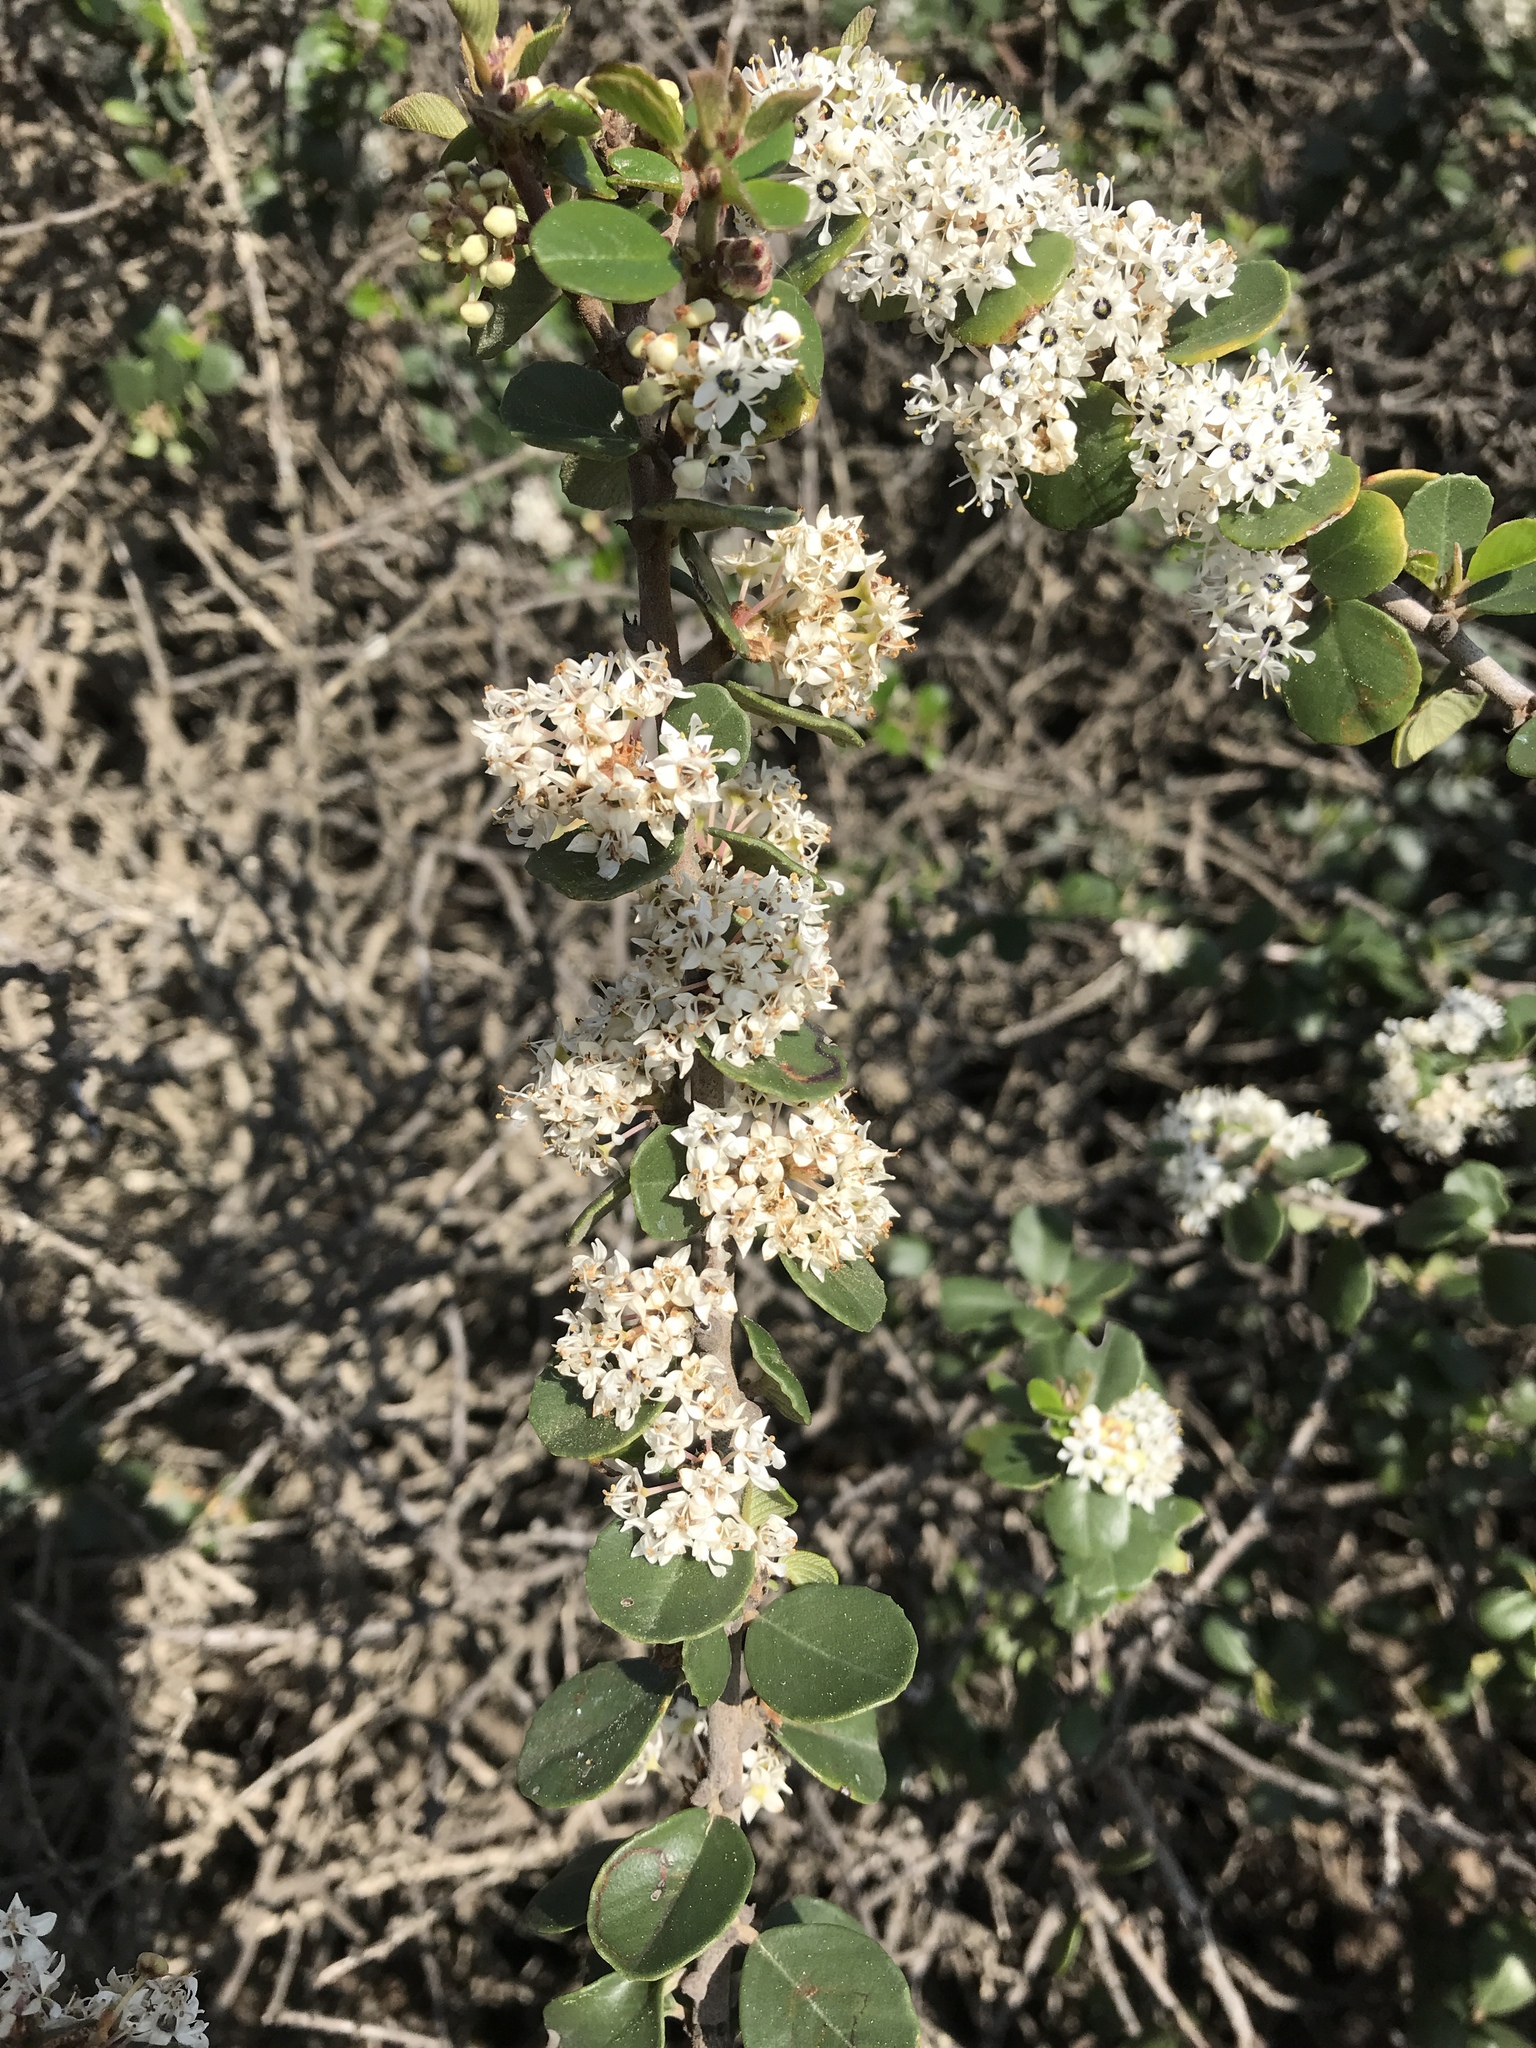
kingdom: Plantae
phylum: Tracheophyta
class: Magnoliopsida
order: Rosales
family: Rhamnaceae
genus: Ceanothus
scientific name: Ceanothus verrucosus
